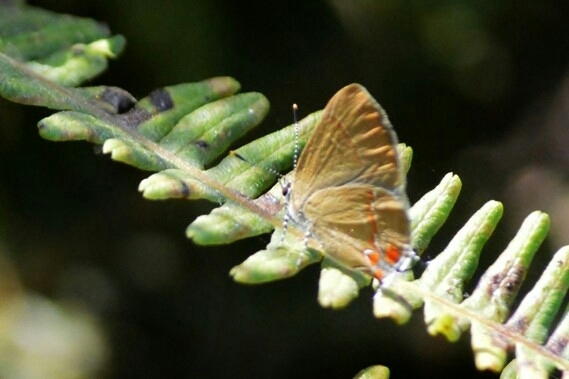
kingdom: Animalia
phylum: Arthropoda
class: Insecta
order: Lepidoptera
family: Lycaenidae
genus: Calycopis
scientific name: Calycopis calus
